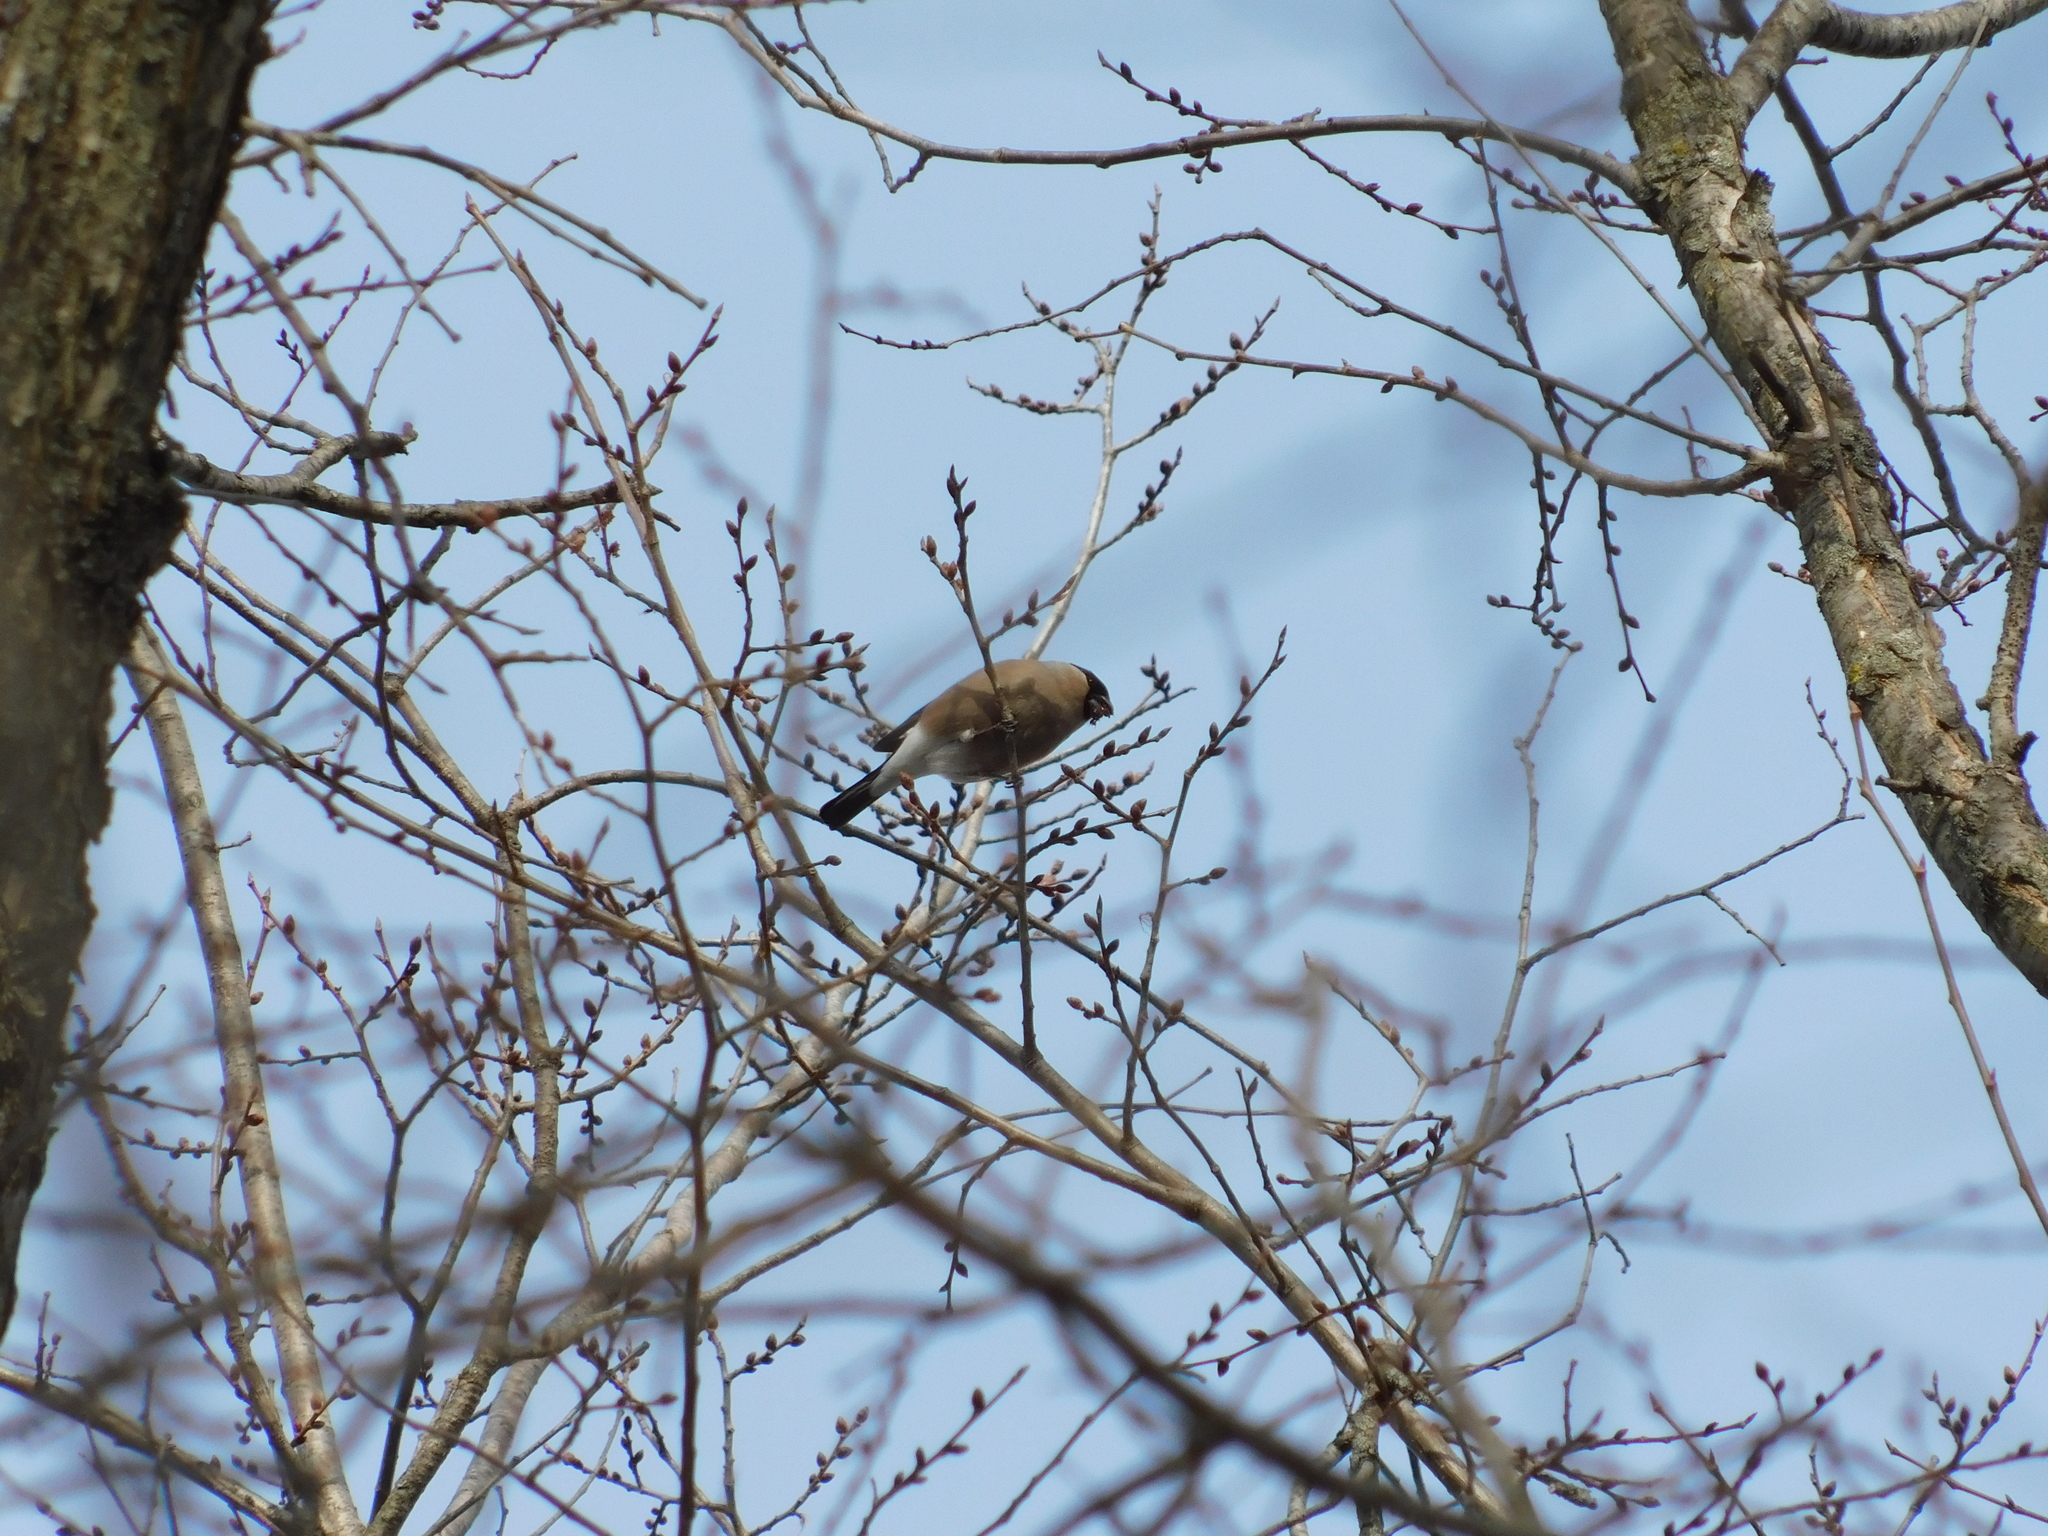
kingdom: Animalia
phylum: Chordata
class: Aves
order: Passeriformes
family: Fringillidae
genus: Pyrrhula
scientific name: Pyrrhula pyrrhula
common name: Eurasian bullfinch
